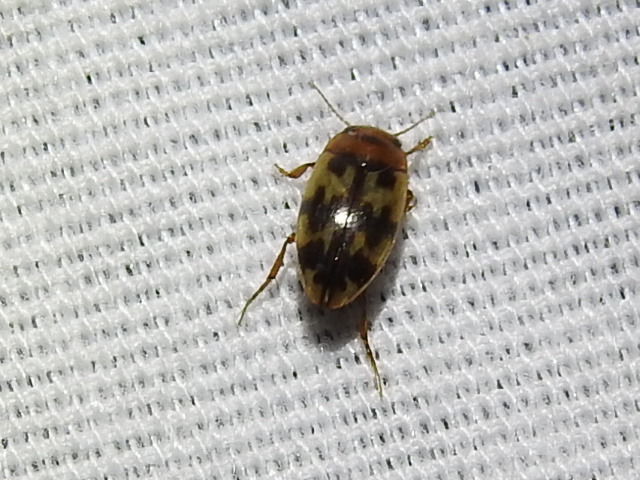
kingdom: Animalia
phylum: Arthropoda
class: Insecta
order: Coleoptera
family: Dytiscidae
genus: Heterosternuta
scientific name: Heterosternuta diversicornis
